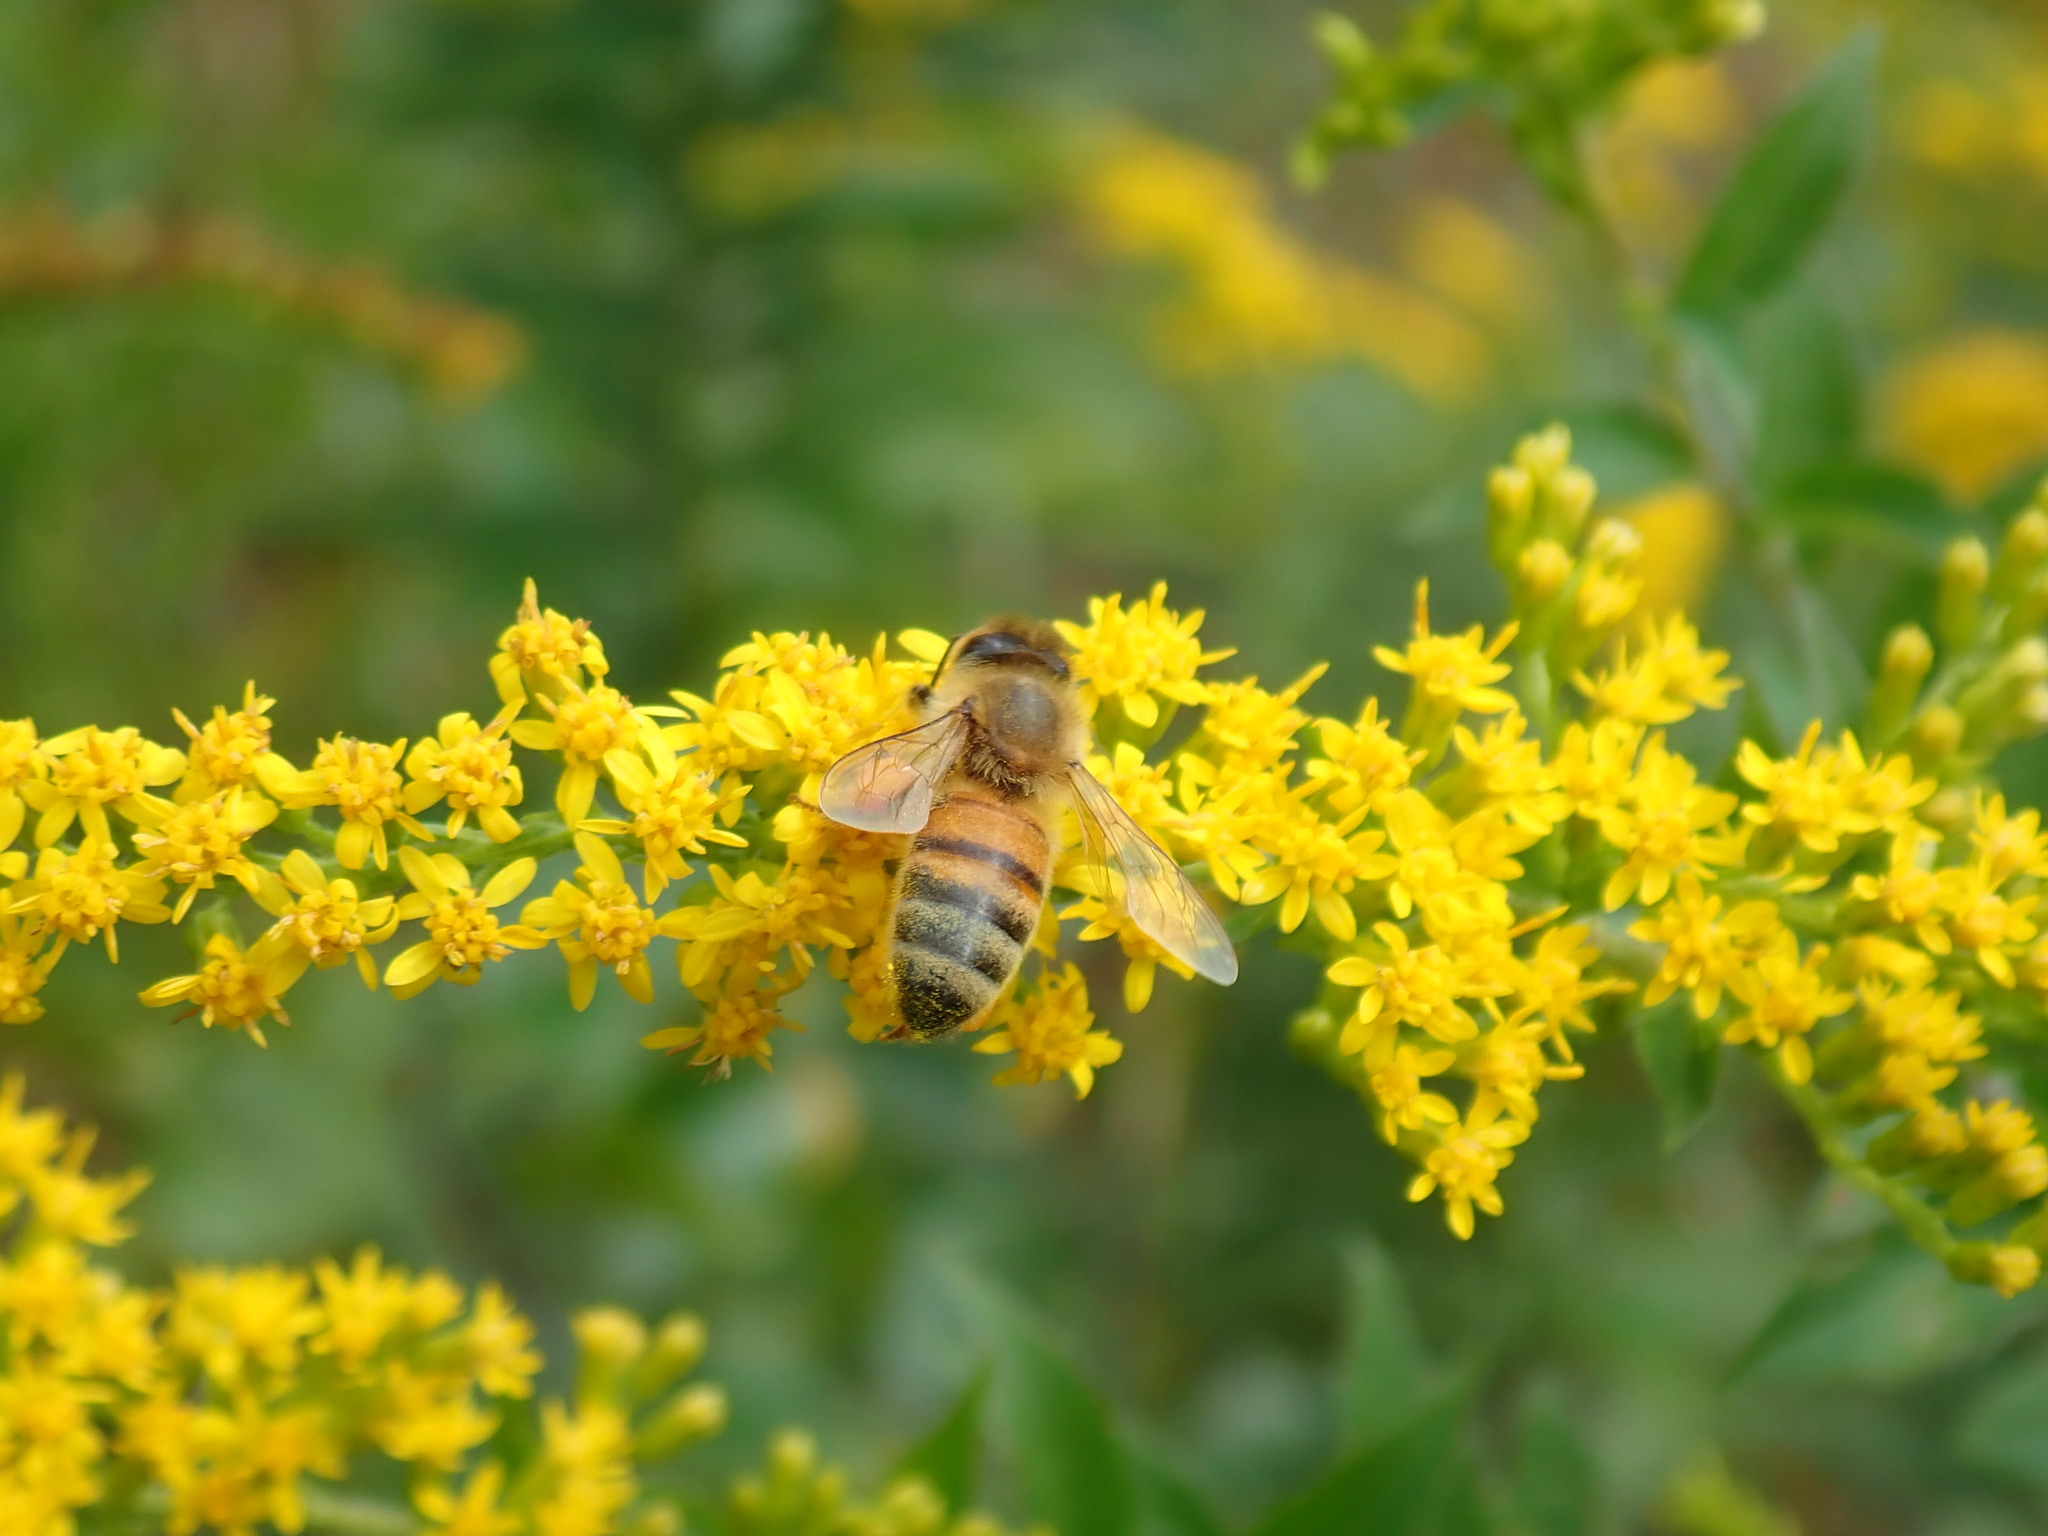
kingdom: Animalia
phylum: Arthropoda
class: Insecta
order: Hymenoptera
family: Apidae
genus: Apis
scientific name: Apis mellifera
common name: Honey bee
